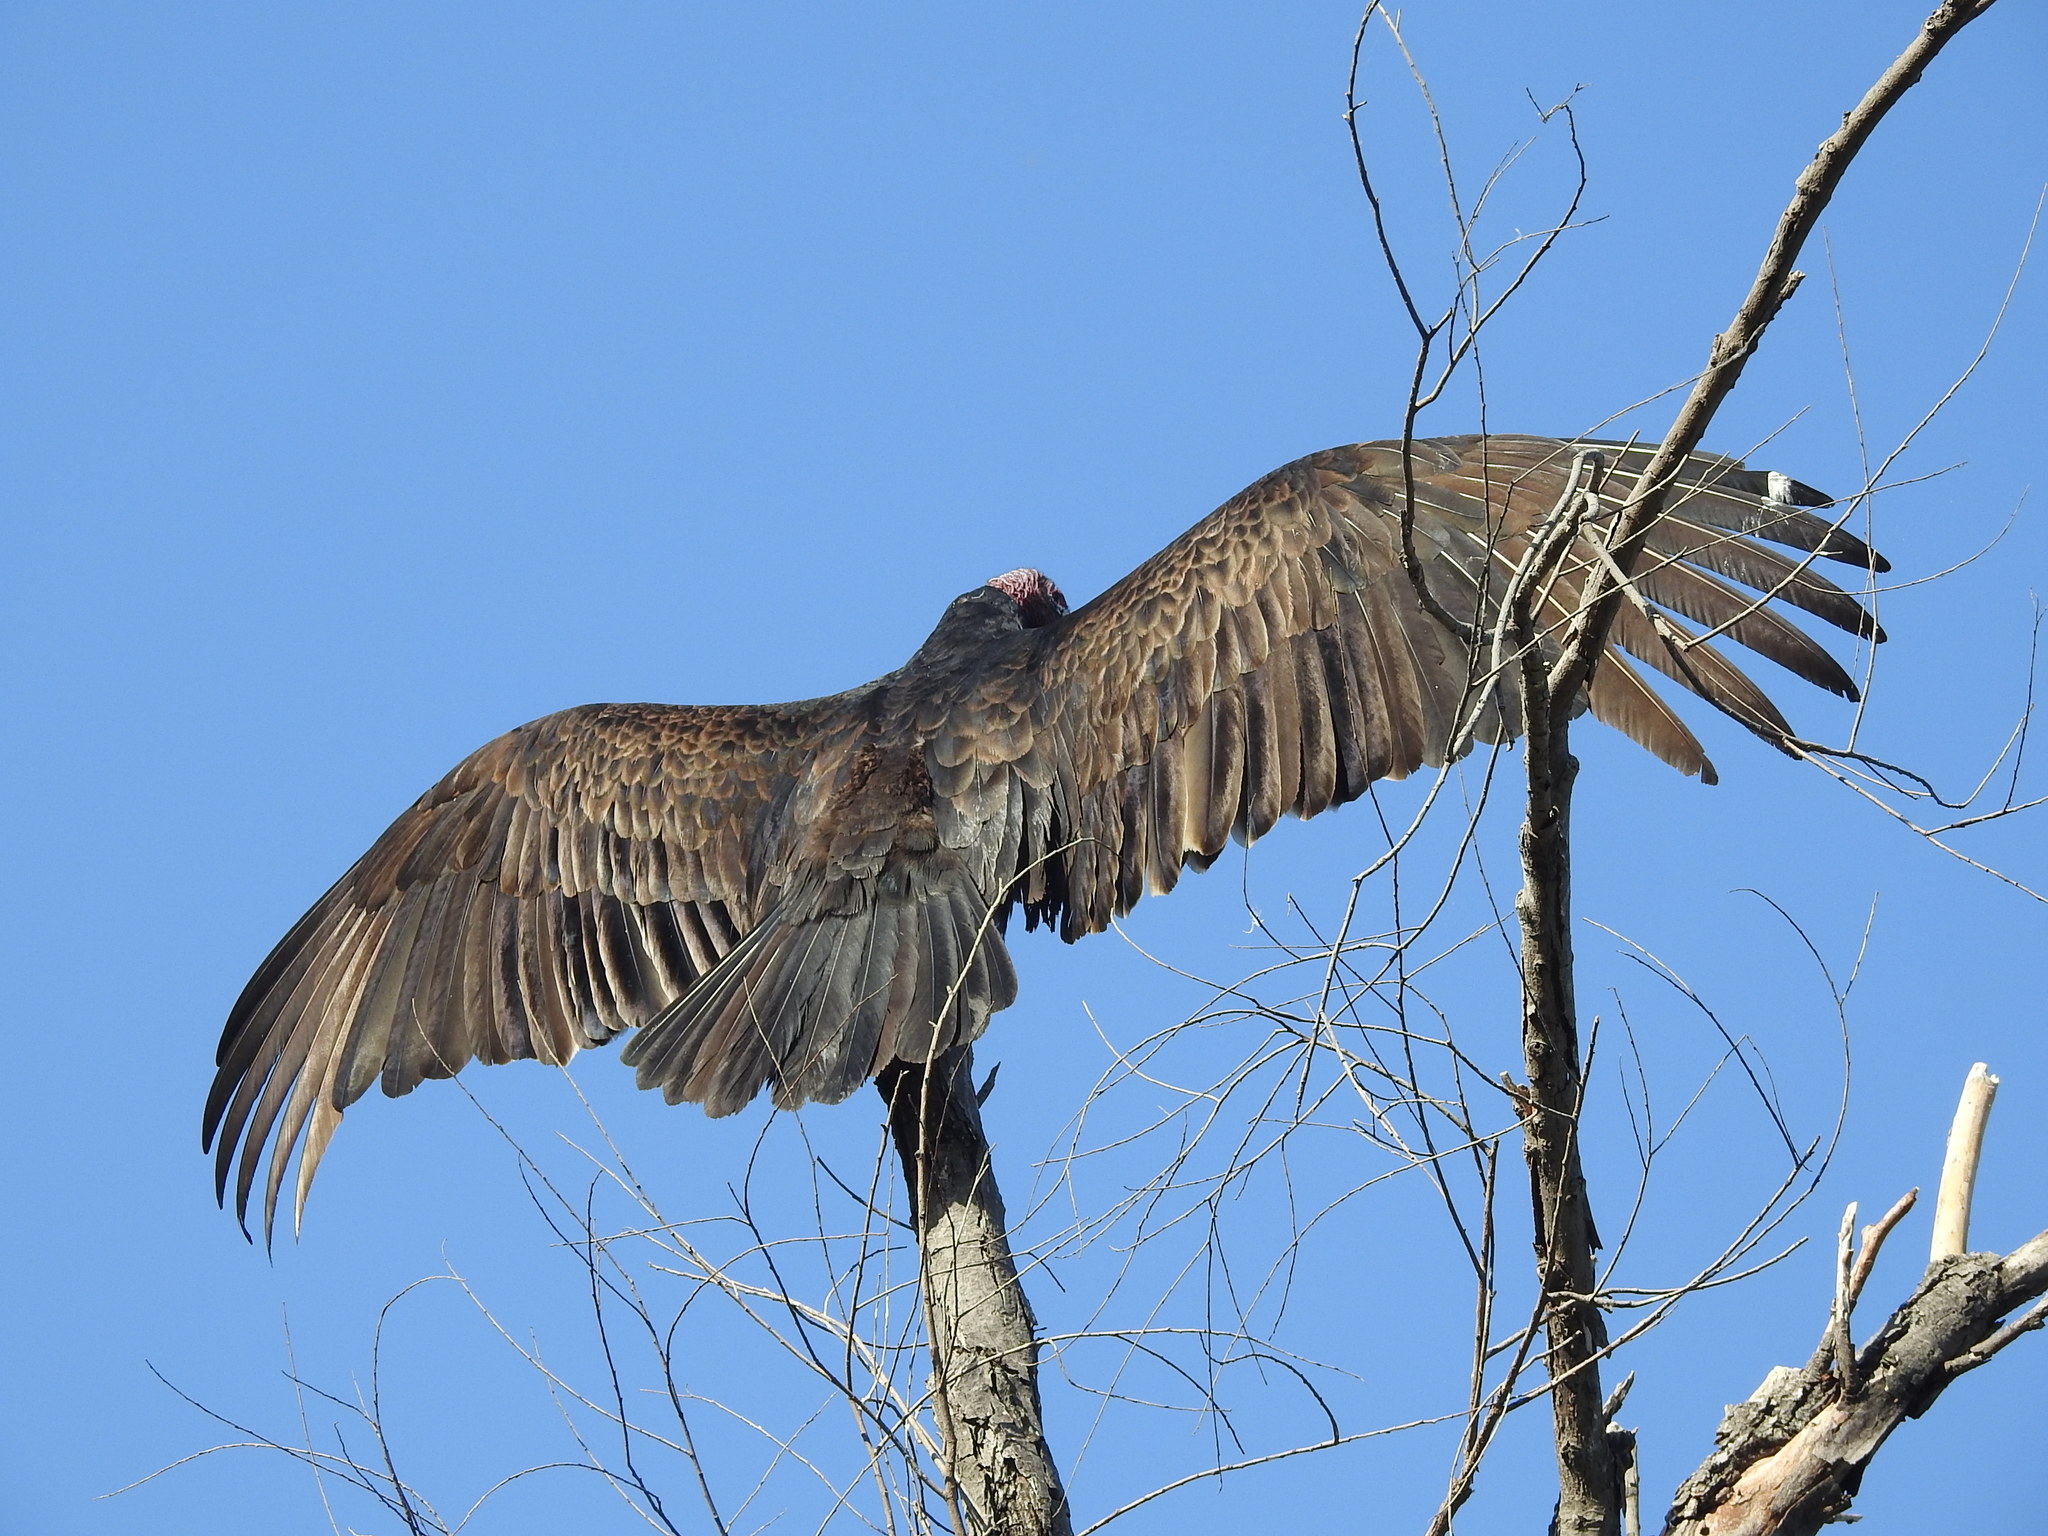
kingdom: Animalia
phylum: Chordata
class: Aves
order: Accipitriformes
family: Cathartidae
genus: Cathartes
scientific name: Cathartes aura
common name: Turkey vulture
